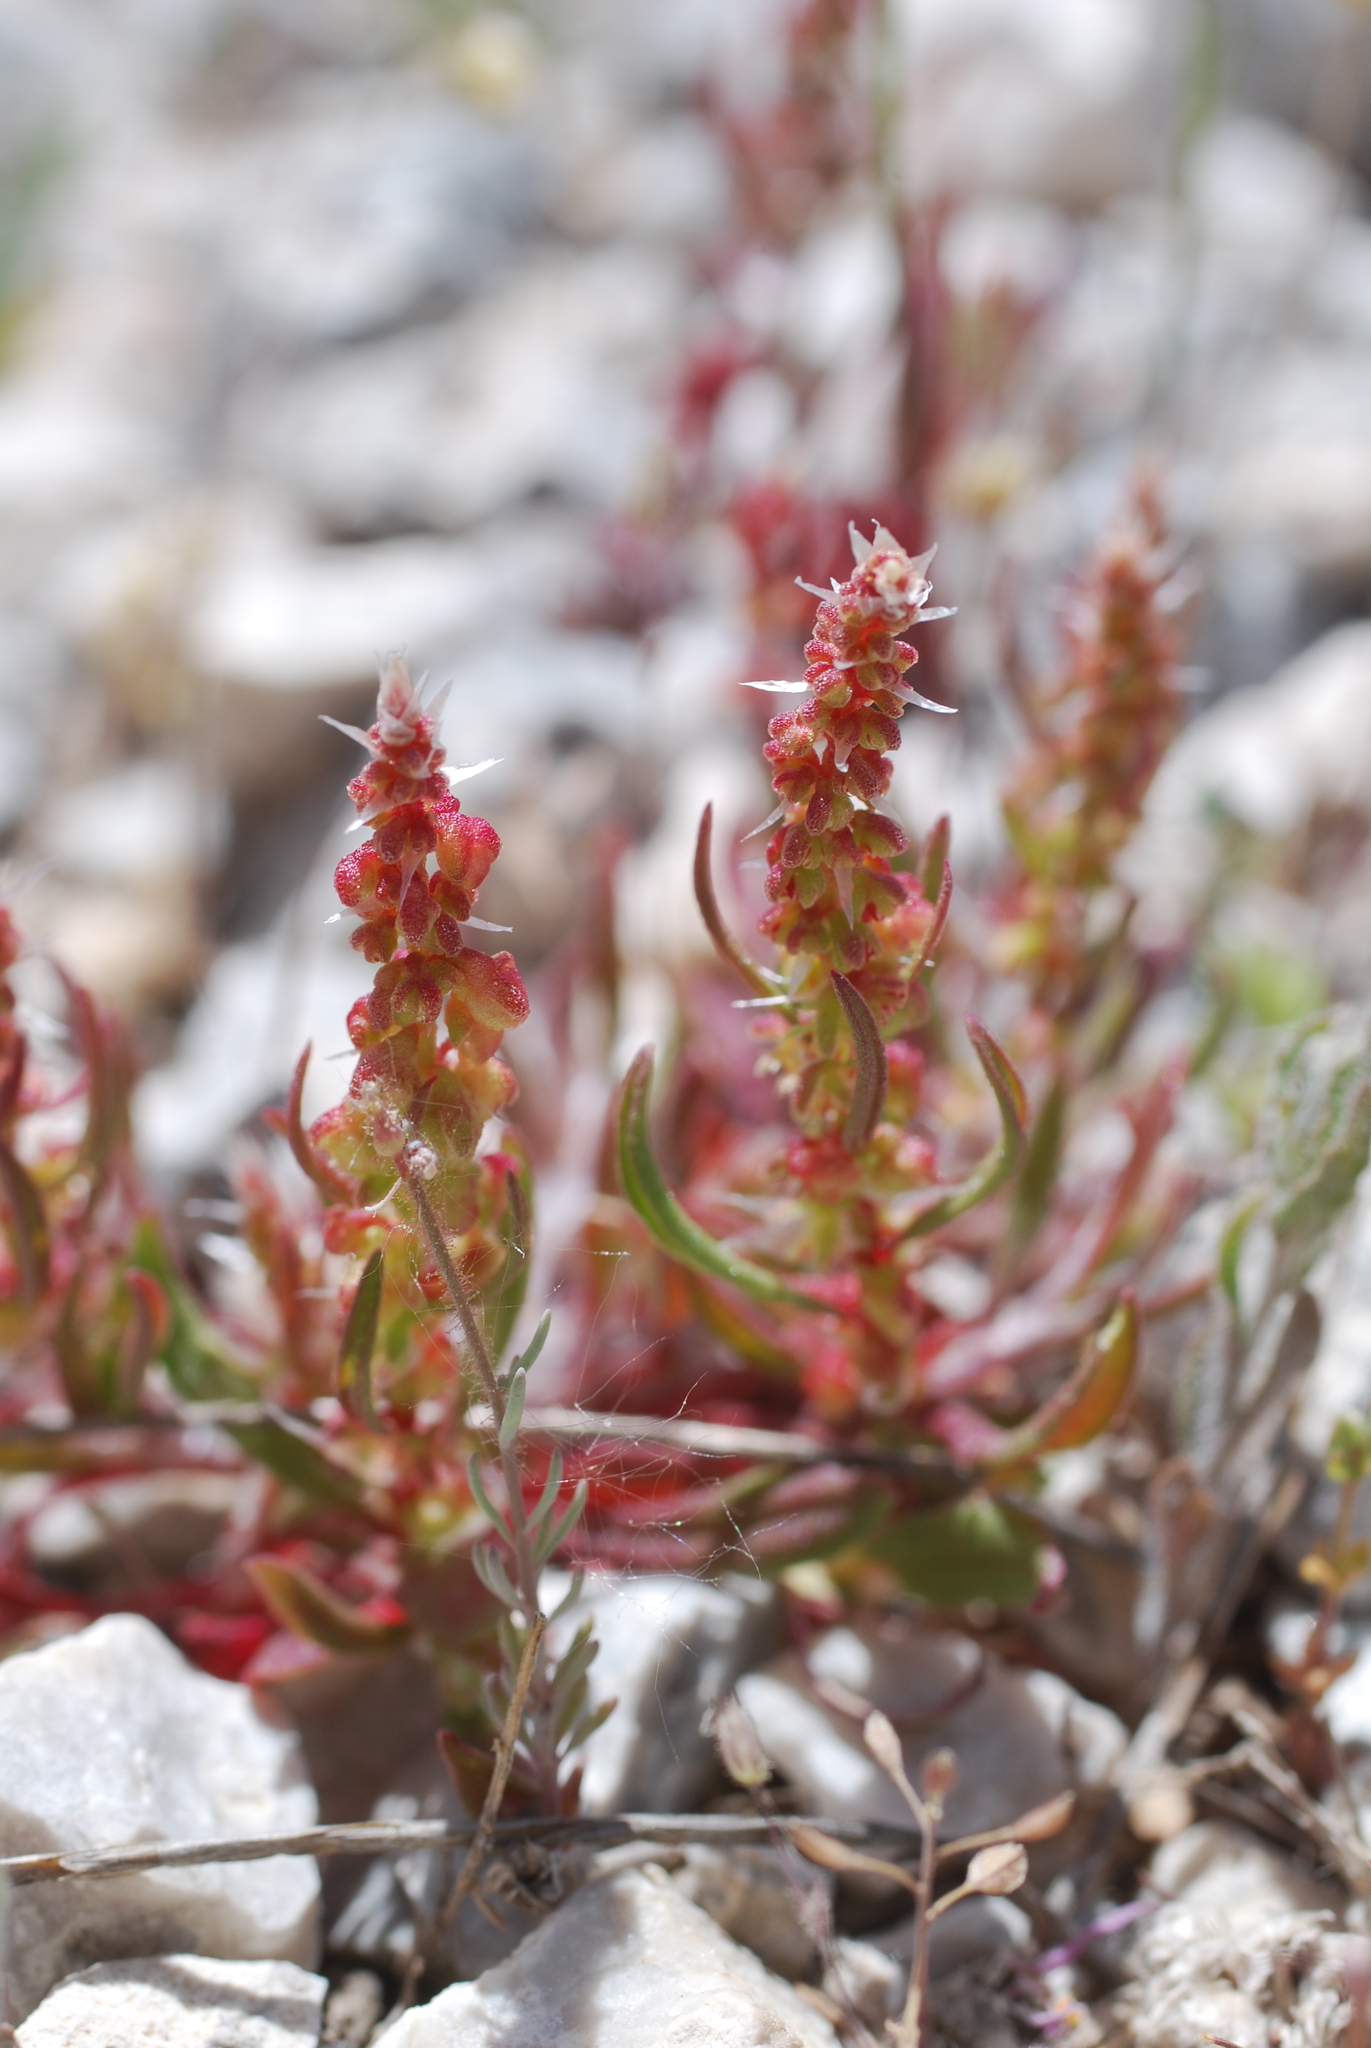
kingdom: Plantae
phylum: Tracheophyta
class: Magnoliopsida
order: Caryophyllales
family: Polygonaceae
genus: Rumex
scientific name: Rumex bucephalophorus
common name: Red dock
